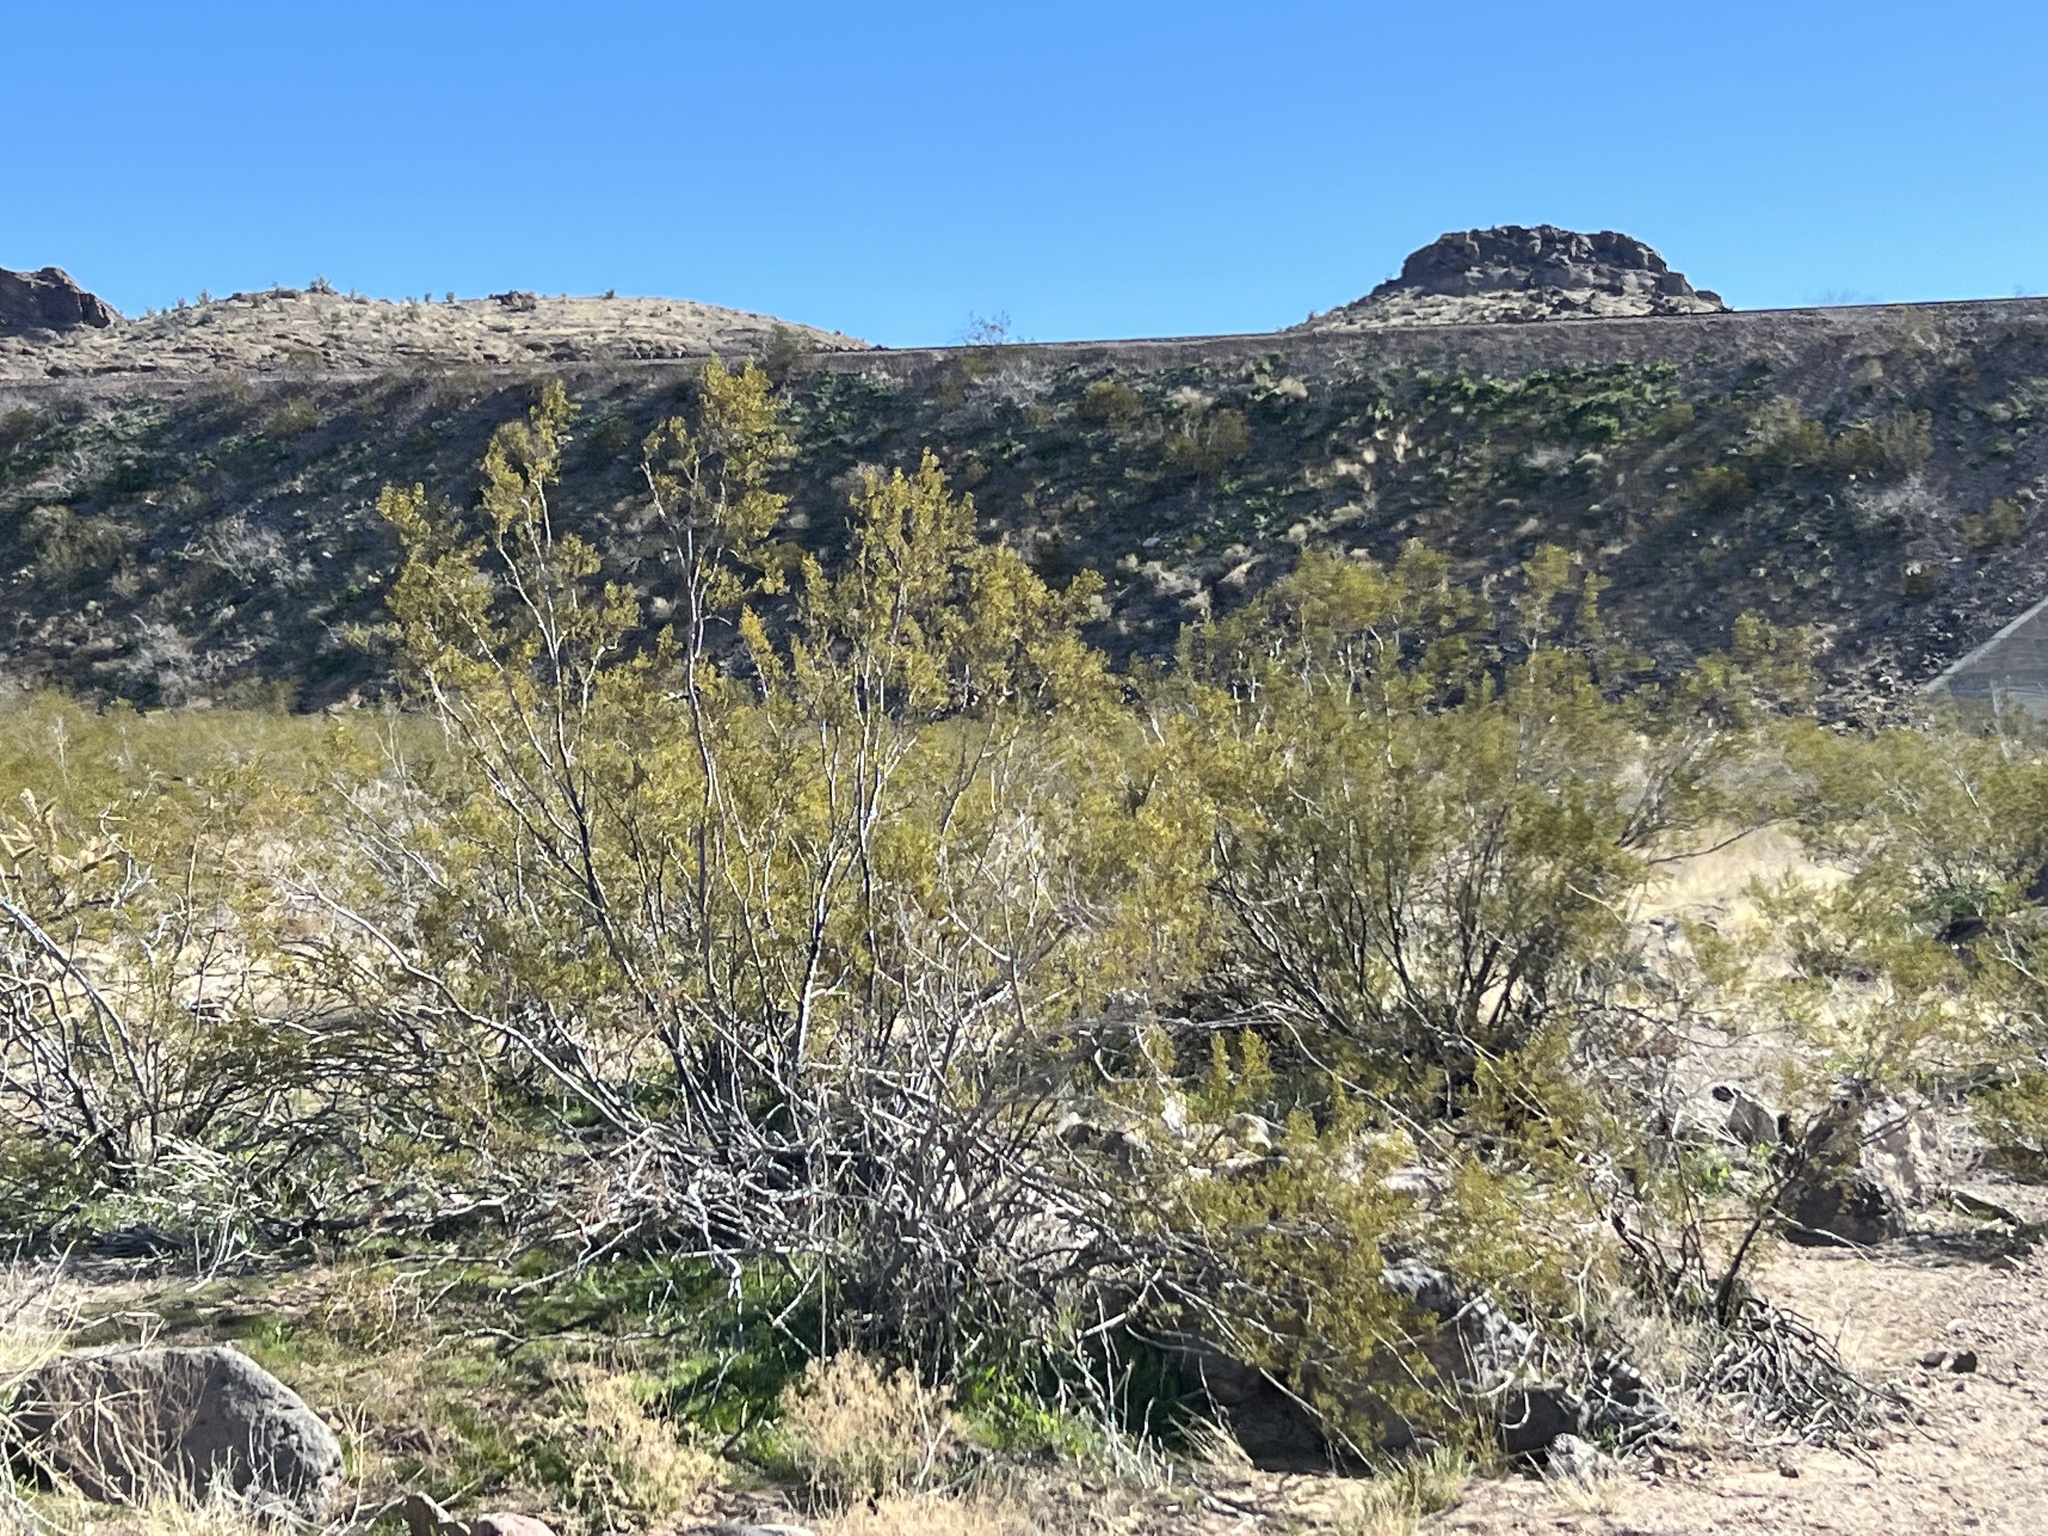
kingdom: Plantae
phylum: Tracheophyta
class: Magnoliopsida
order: Zygophyllales
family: Zygophyllaceae
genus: Larrea
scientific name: Larrea tridentata
